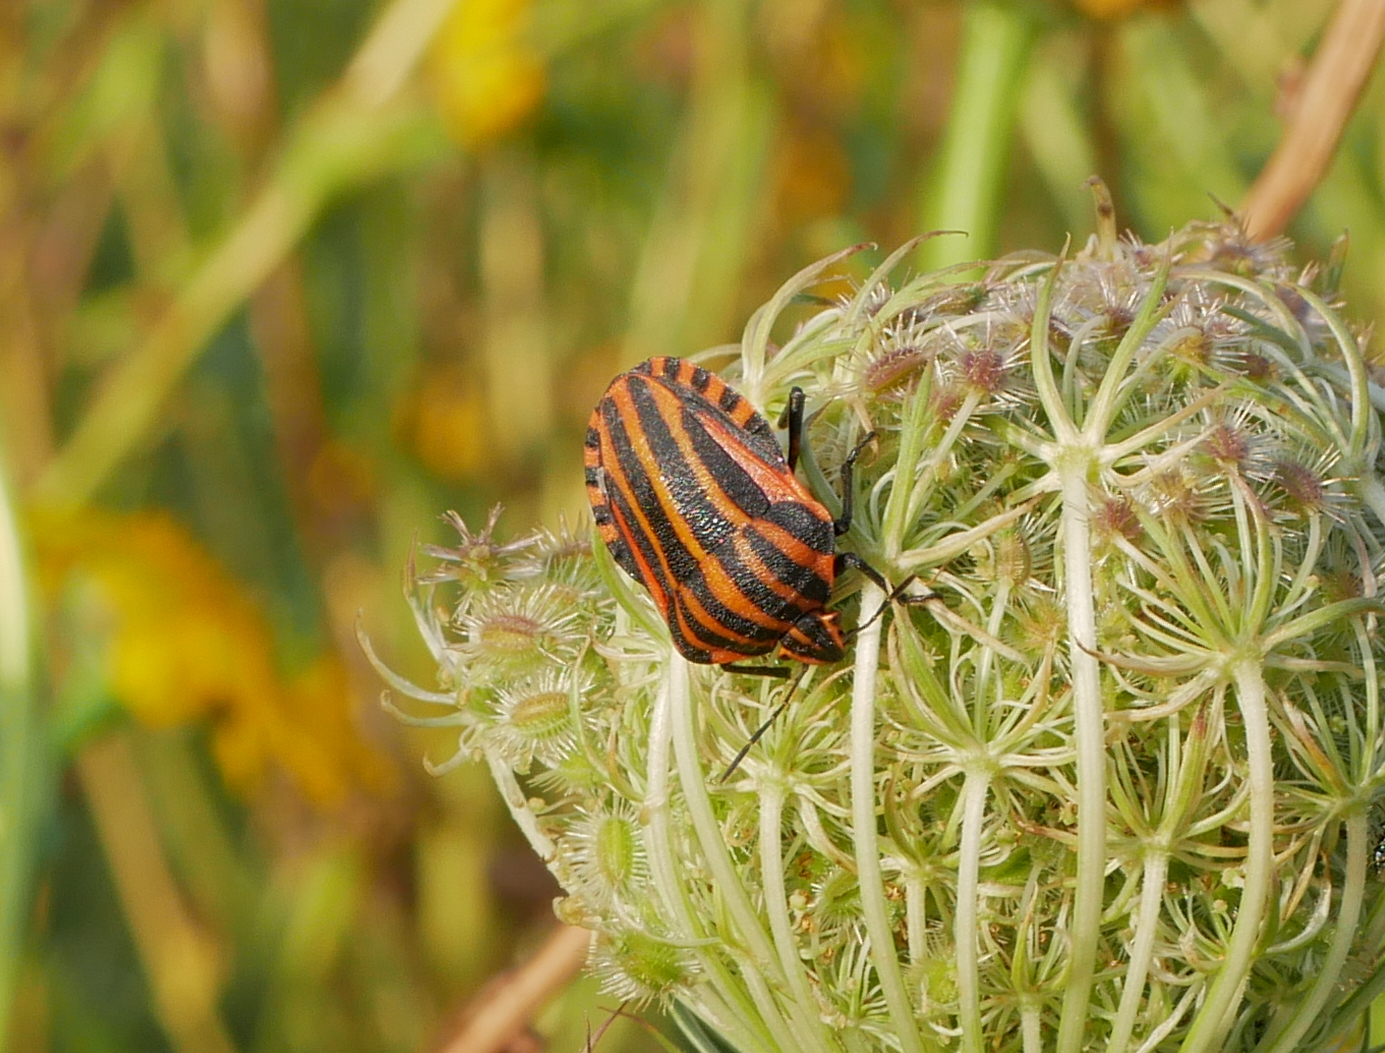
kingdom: Animalia
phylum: Arthropoda
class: Insecta
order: Hemiptera
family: Pentatomidae
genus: Graphosoma
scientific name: Graphosoma italicum
